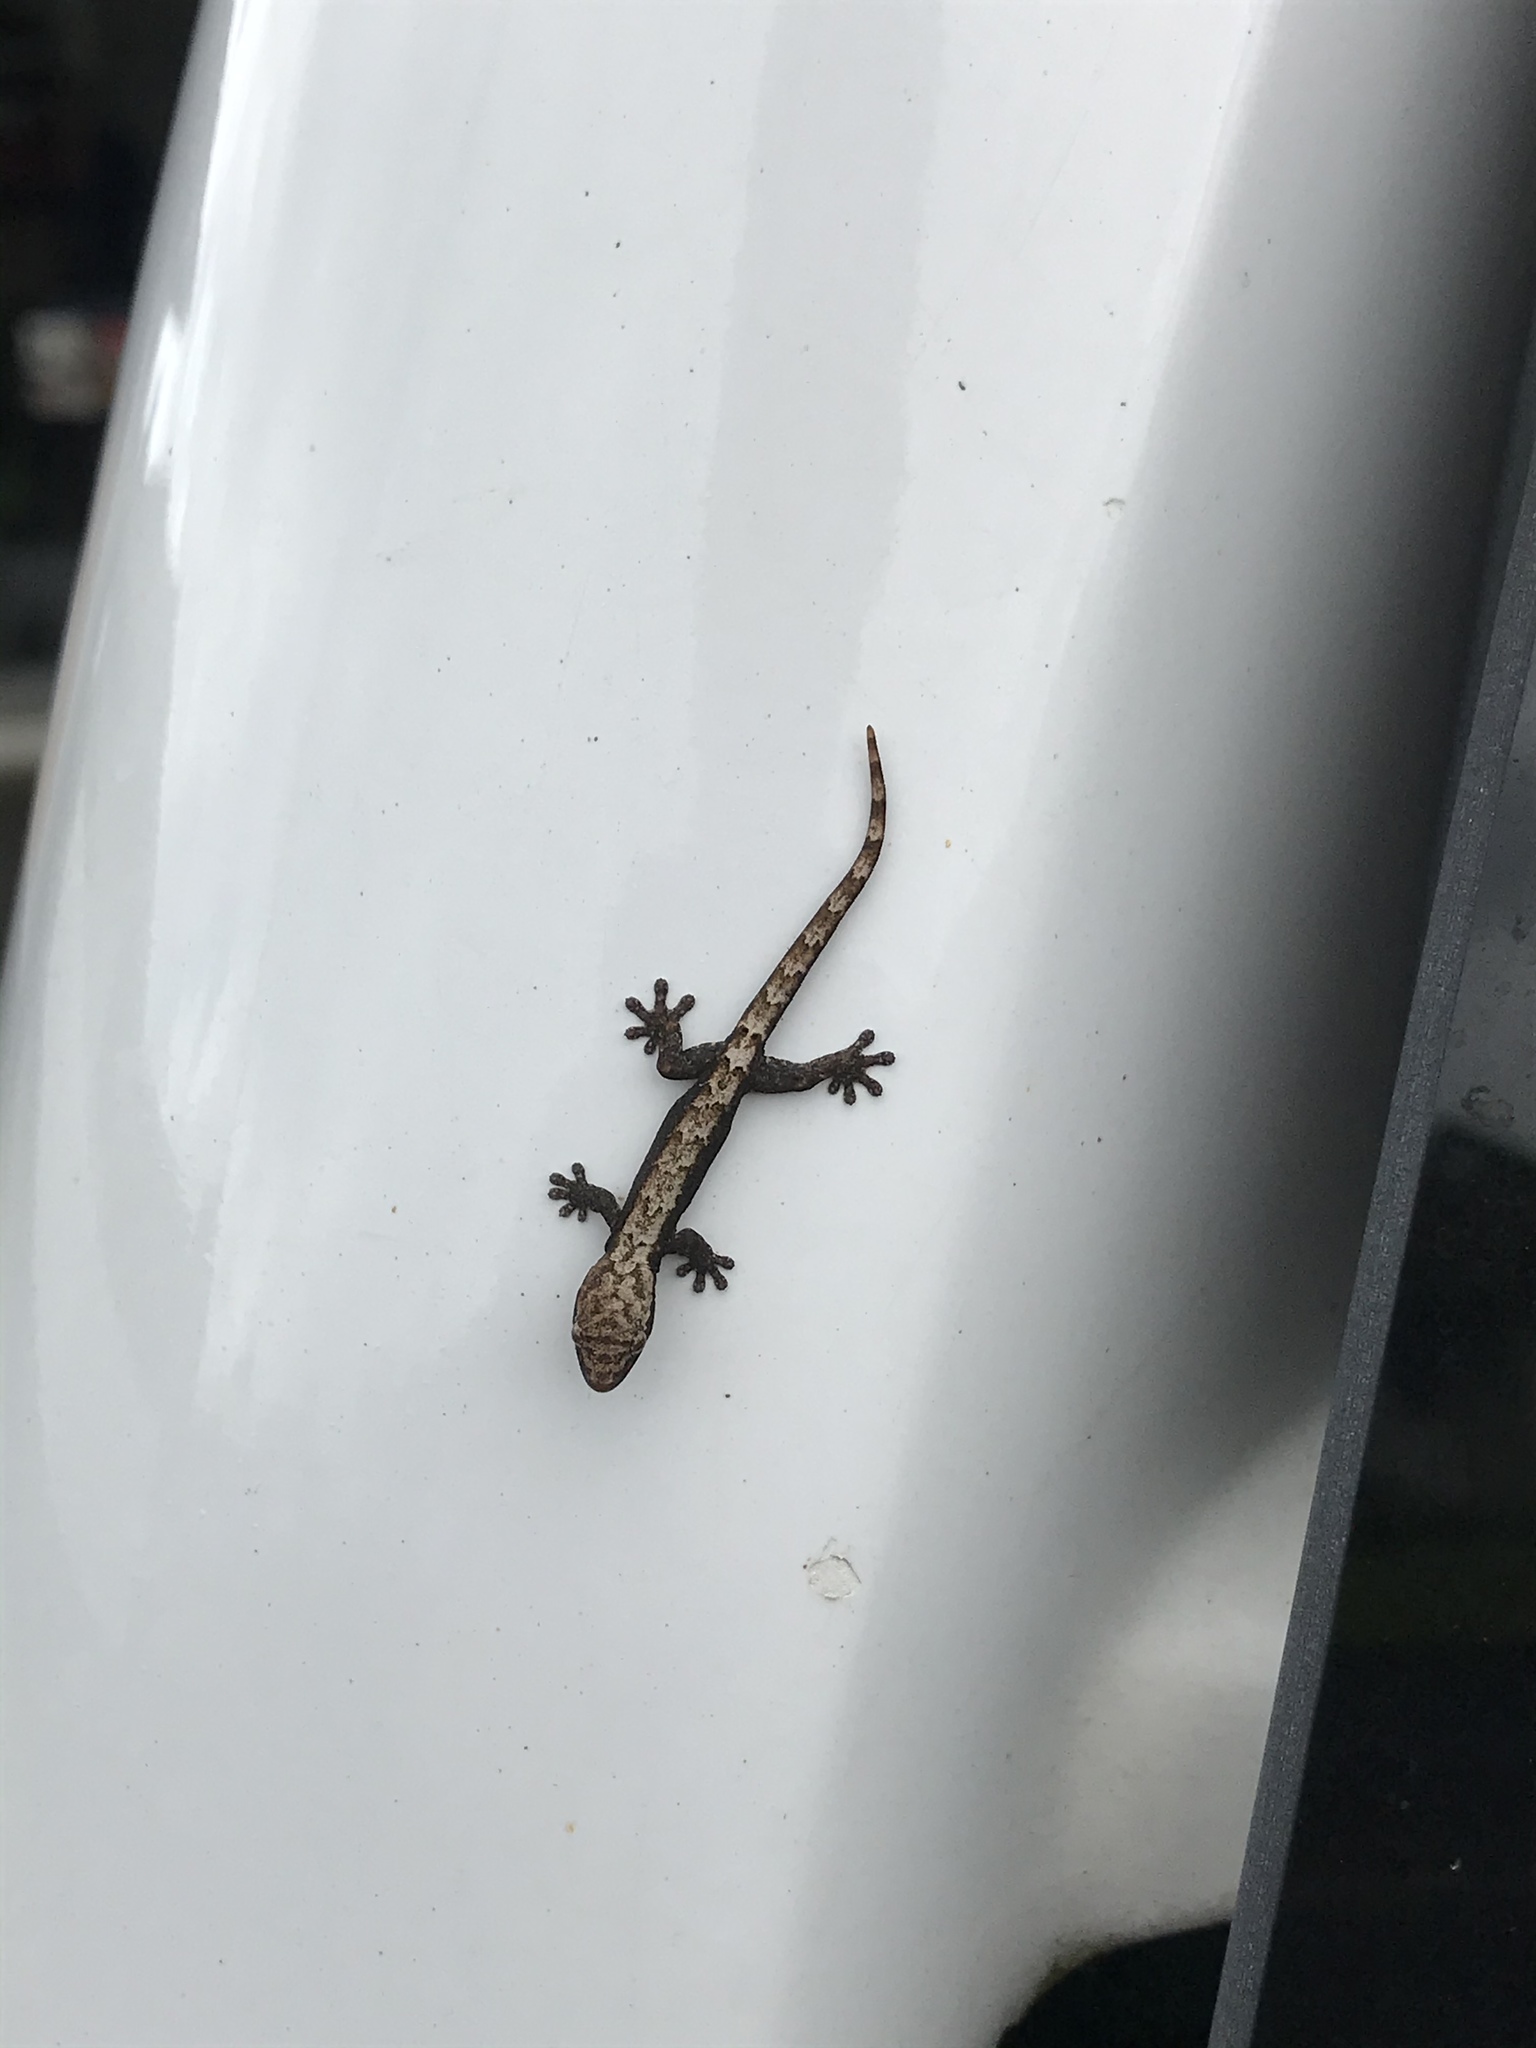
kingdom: Animalia
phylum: Chordata
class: Squamata
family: Gekkonidae
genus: Lepidodactylus
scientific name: Lepidodactylus lugubris
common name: Mourning gecko
